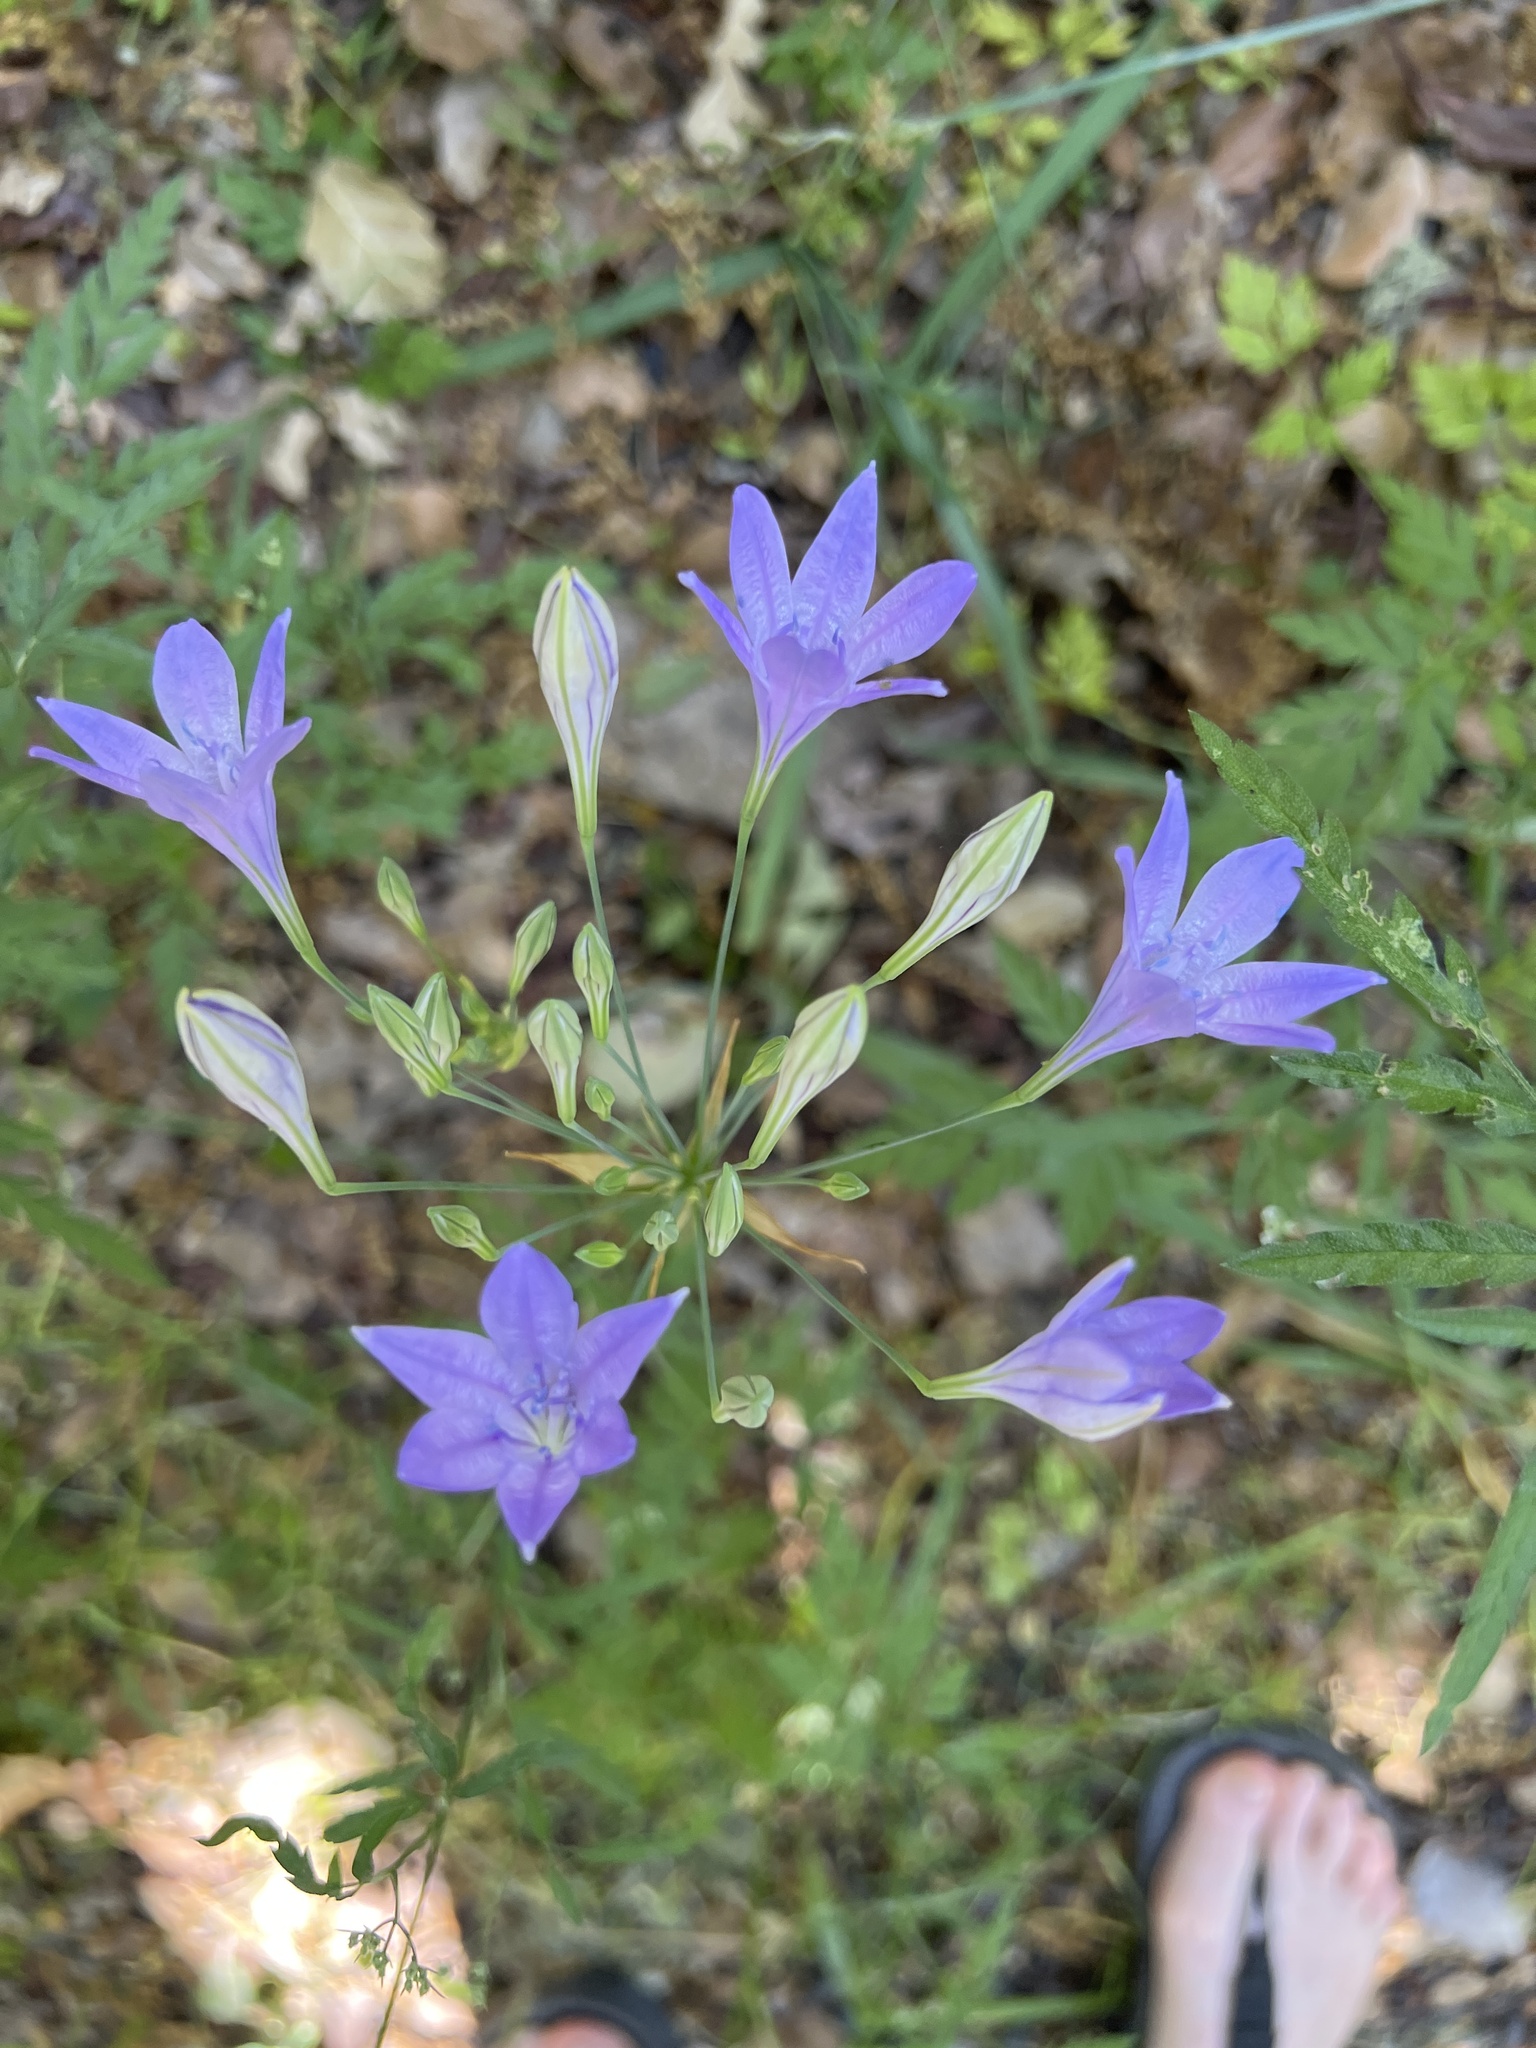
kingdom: Plantae
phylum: Tracheophyta
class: Liliopsida
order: Asparagales
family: Asparagaceae
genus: Triteleia
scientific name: Triteleia laxa
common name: Triplet-lily
